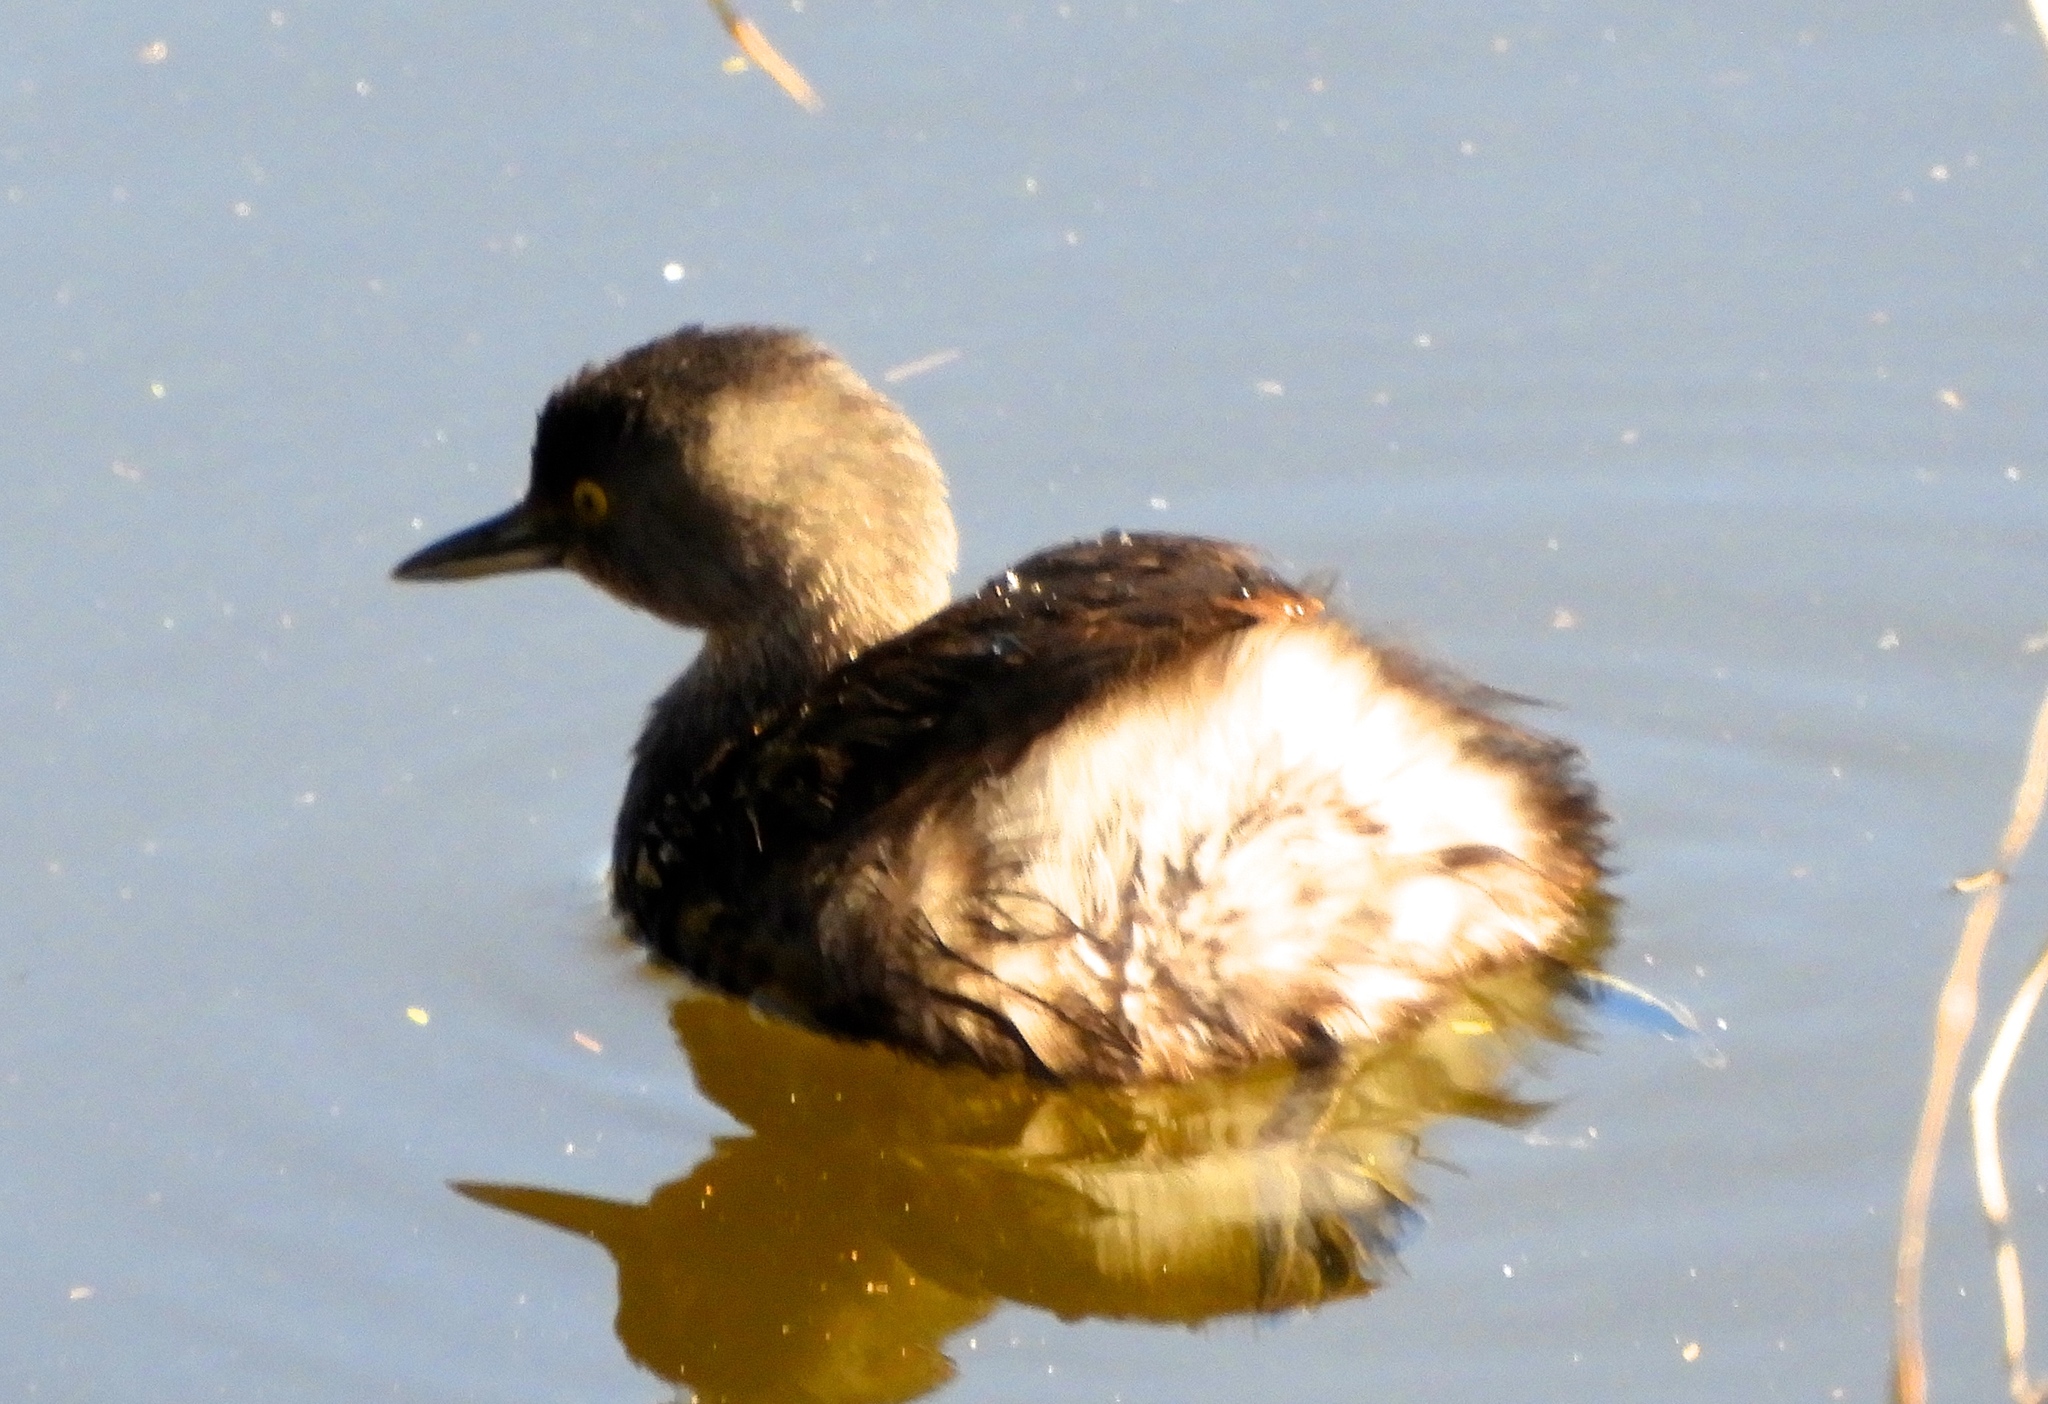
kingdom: Animalia
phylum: Chordata
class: Aves
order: Podicipediformes
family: Podicipedidae
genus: Tachybaptus
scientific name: Tachybaptus dominicus
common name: Least grebe
